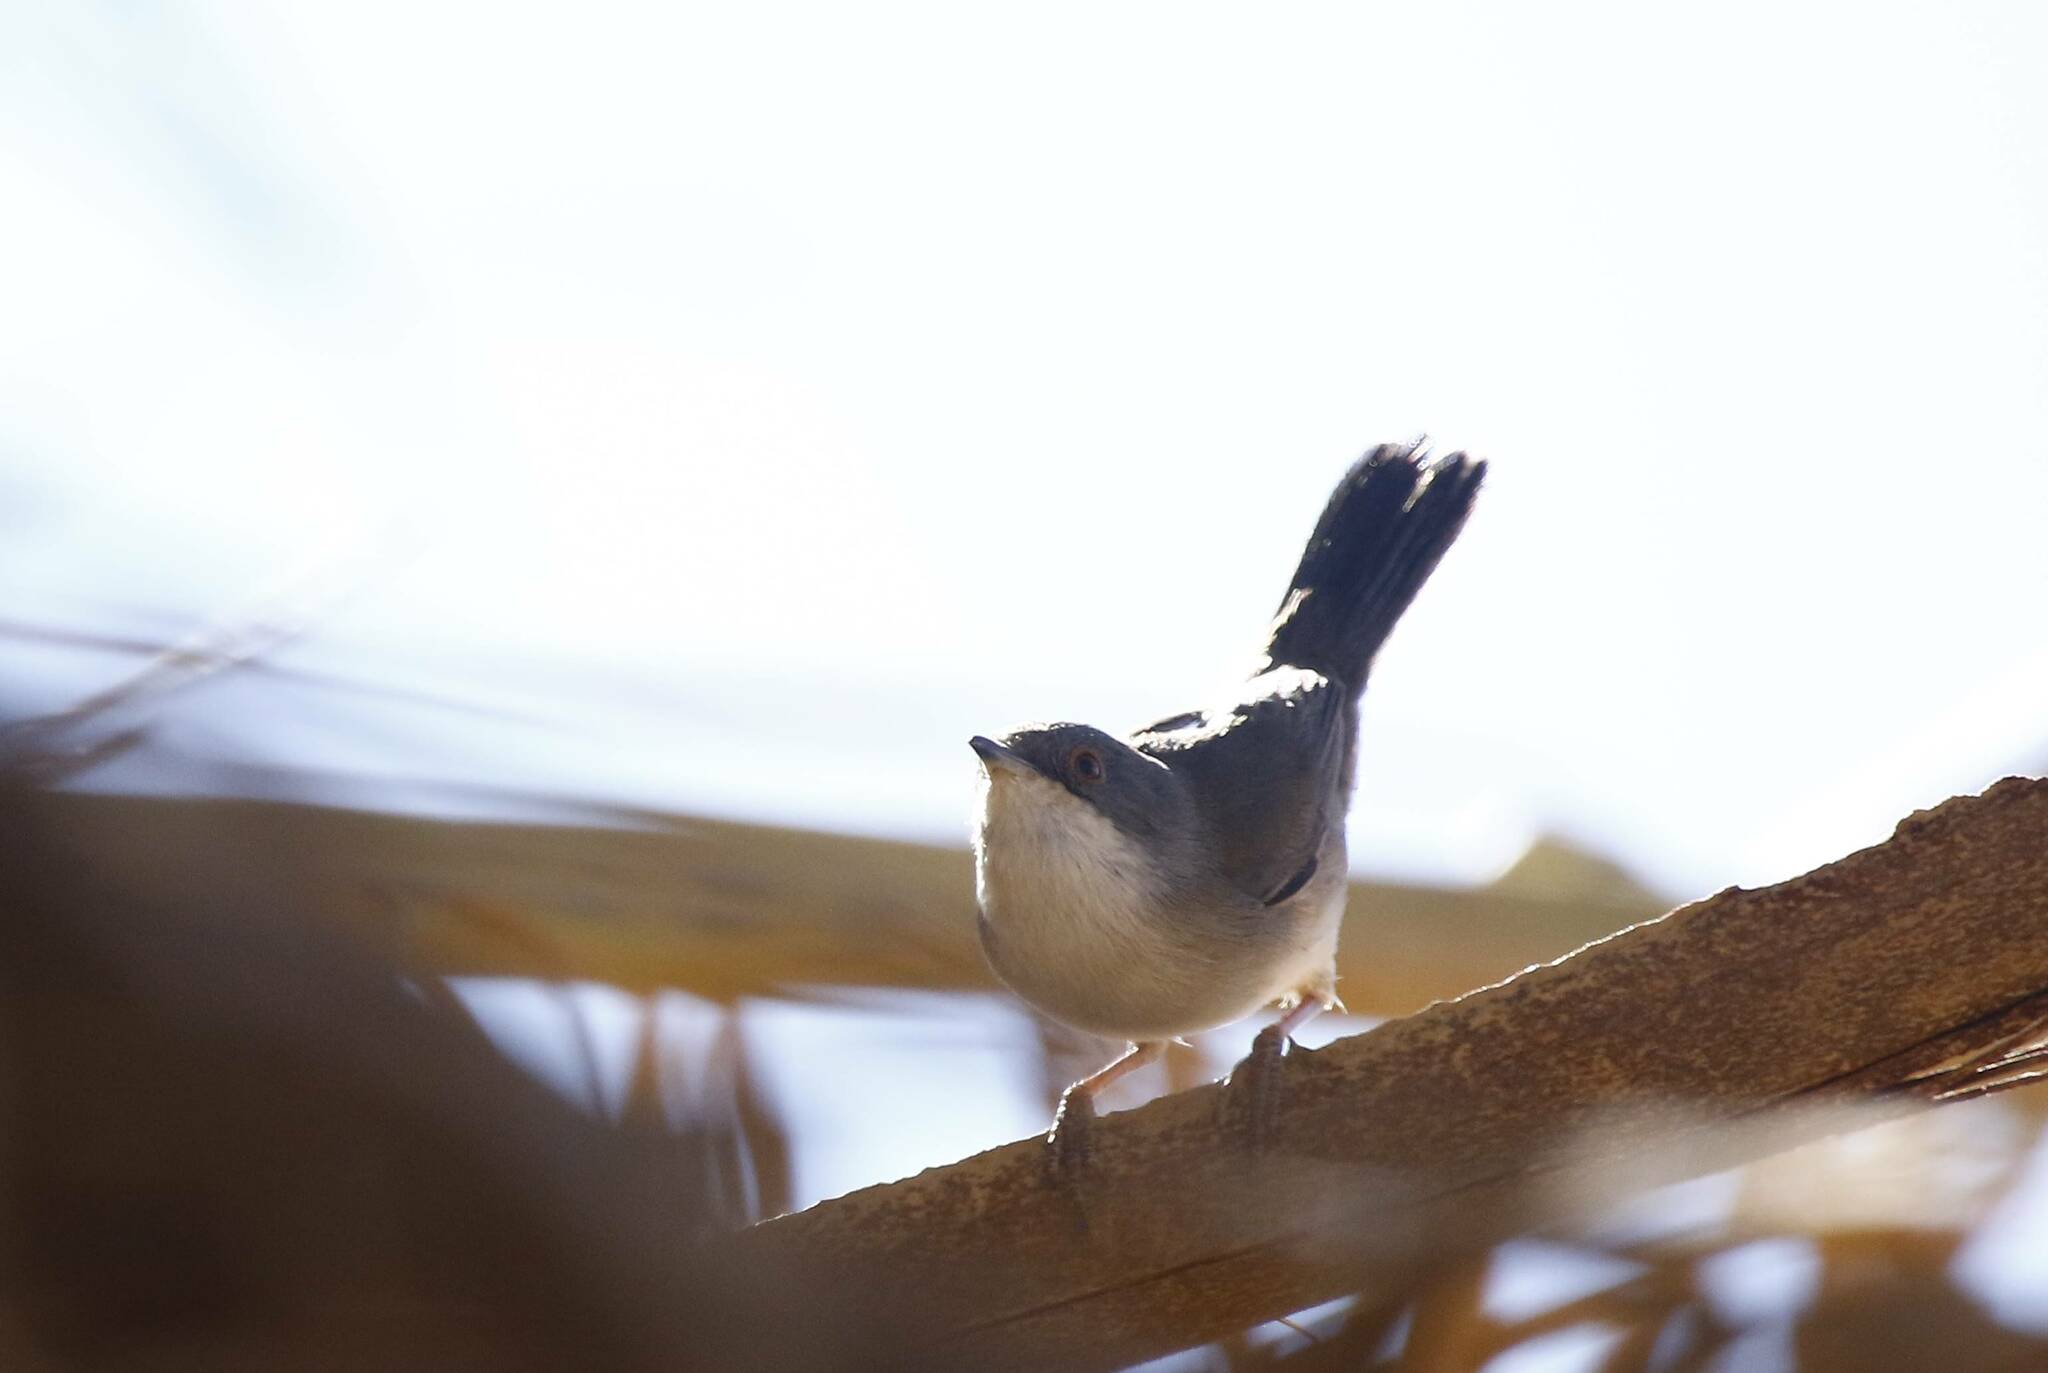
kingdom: Animalia
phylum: Chordata
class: Aves
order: Passeriformes
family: Sylviidae
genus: Curruca
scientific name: Curruca melanocephala
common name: Sardinian warbler
